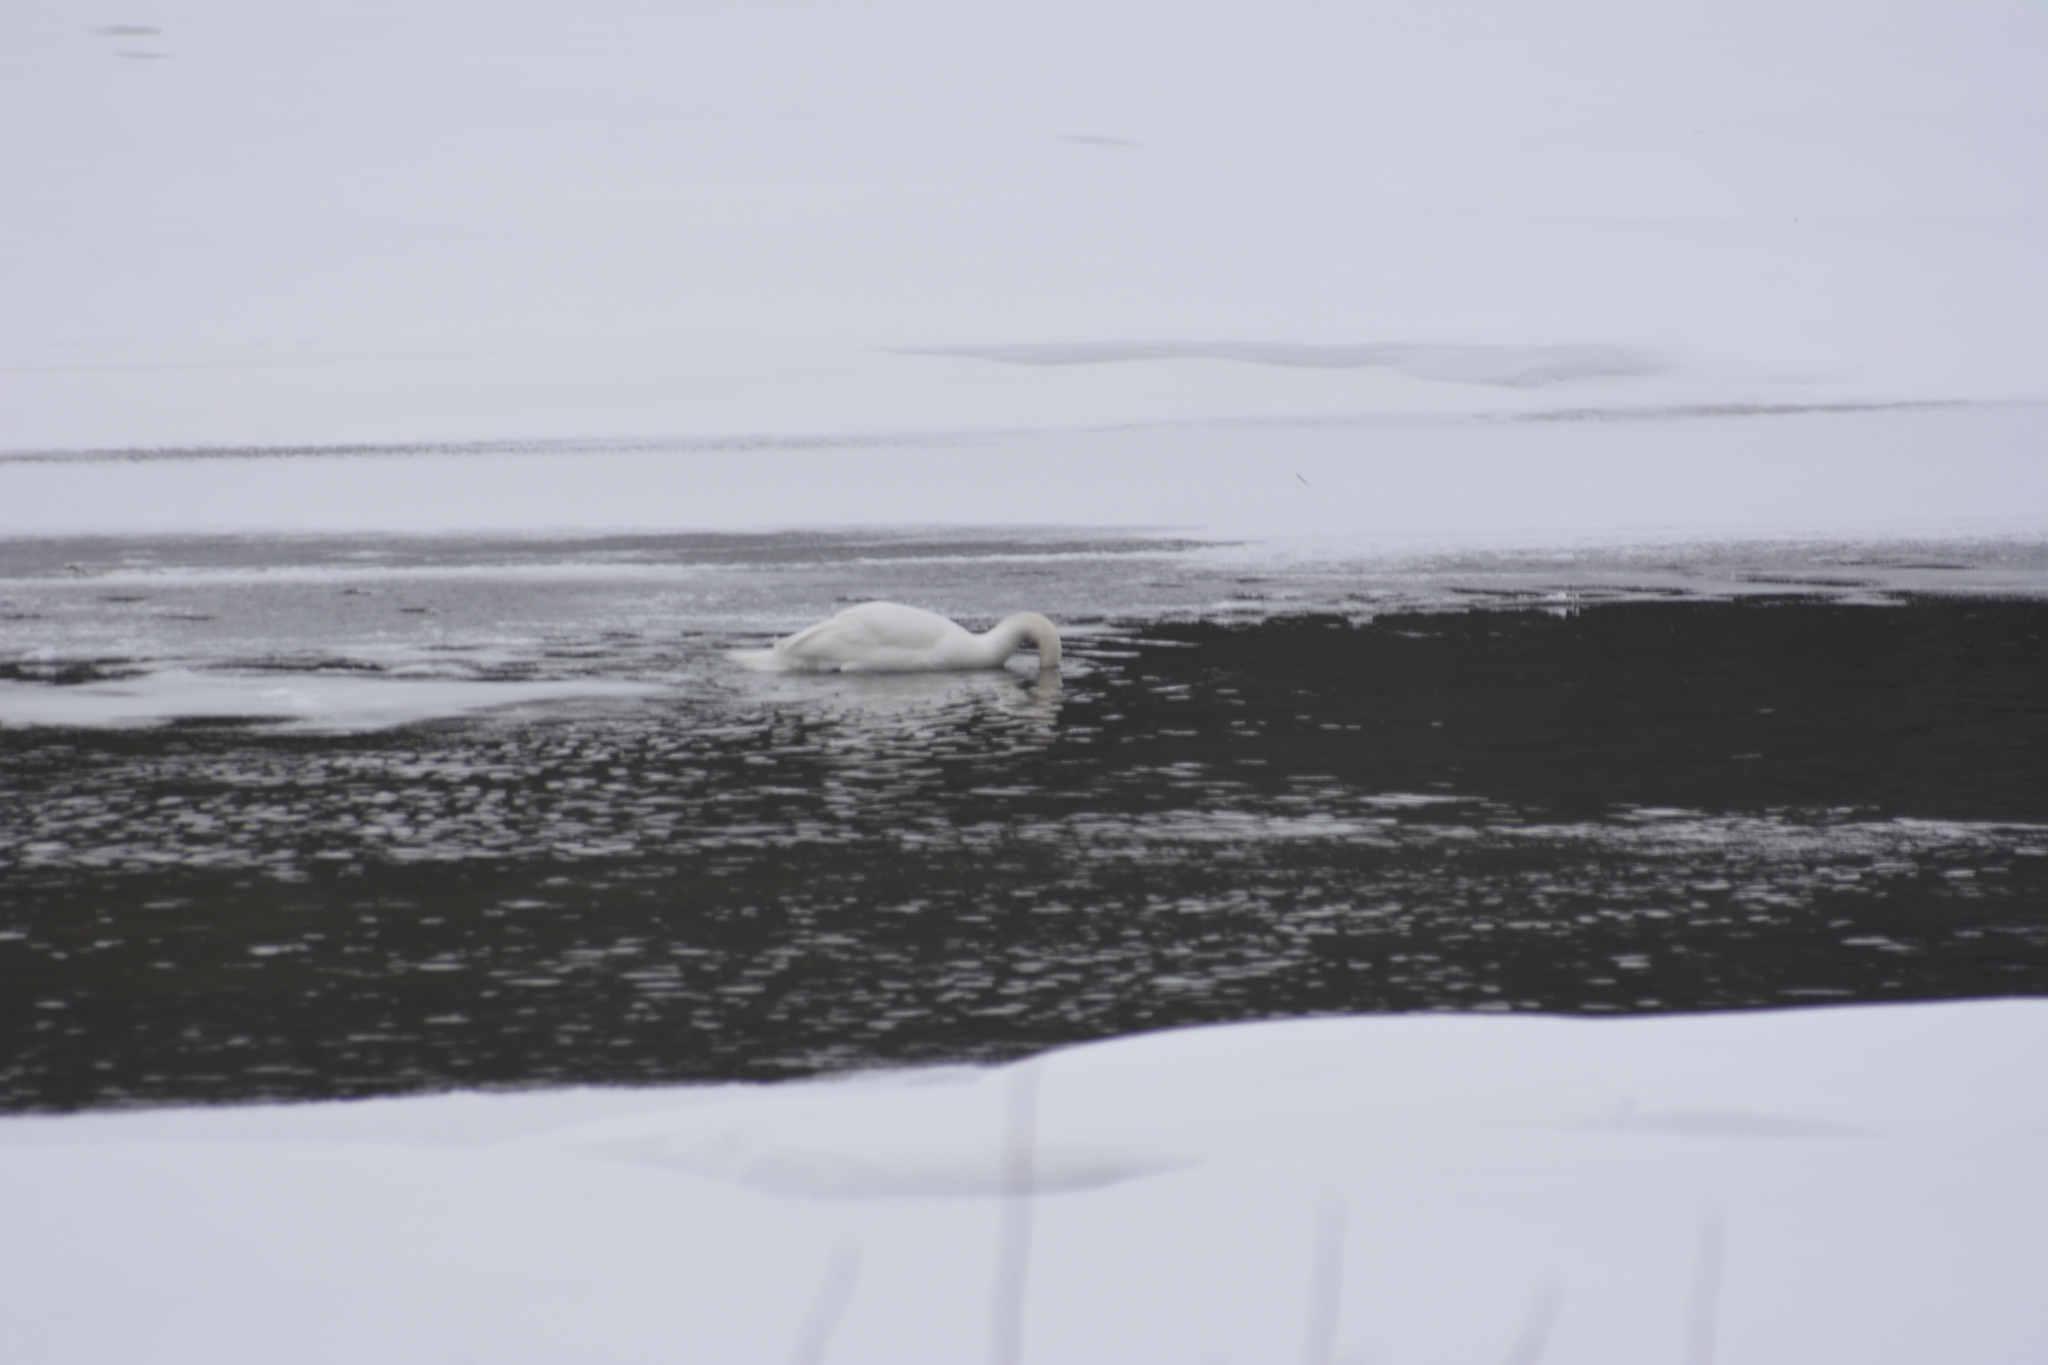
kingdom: Animalia
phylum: Chordata
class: Aves
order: Anseriformes
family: Anatidae
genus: Cygnus
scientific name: Cygnus olor
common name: Mute swan
